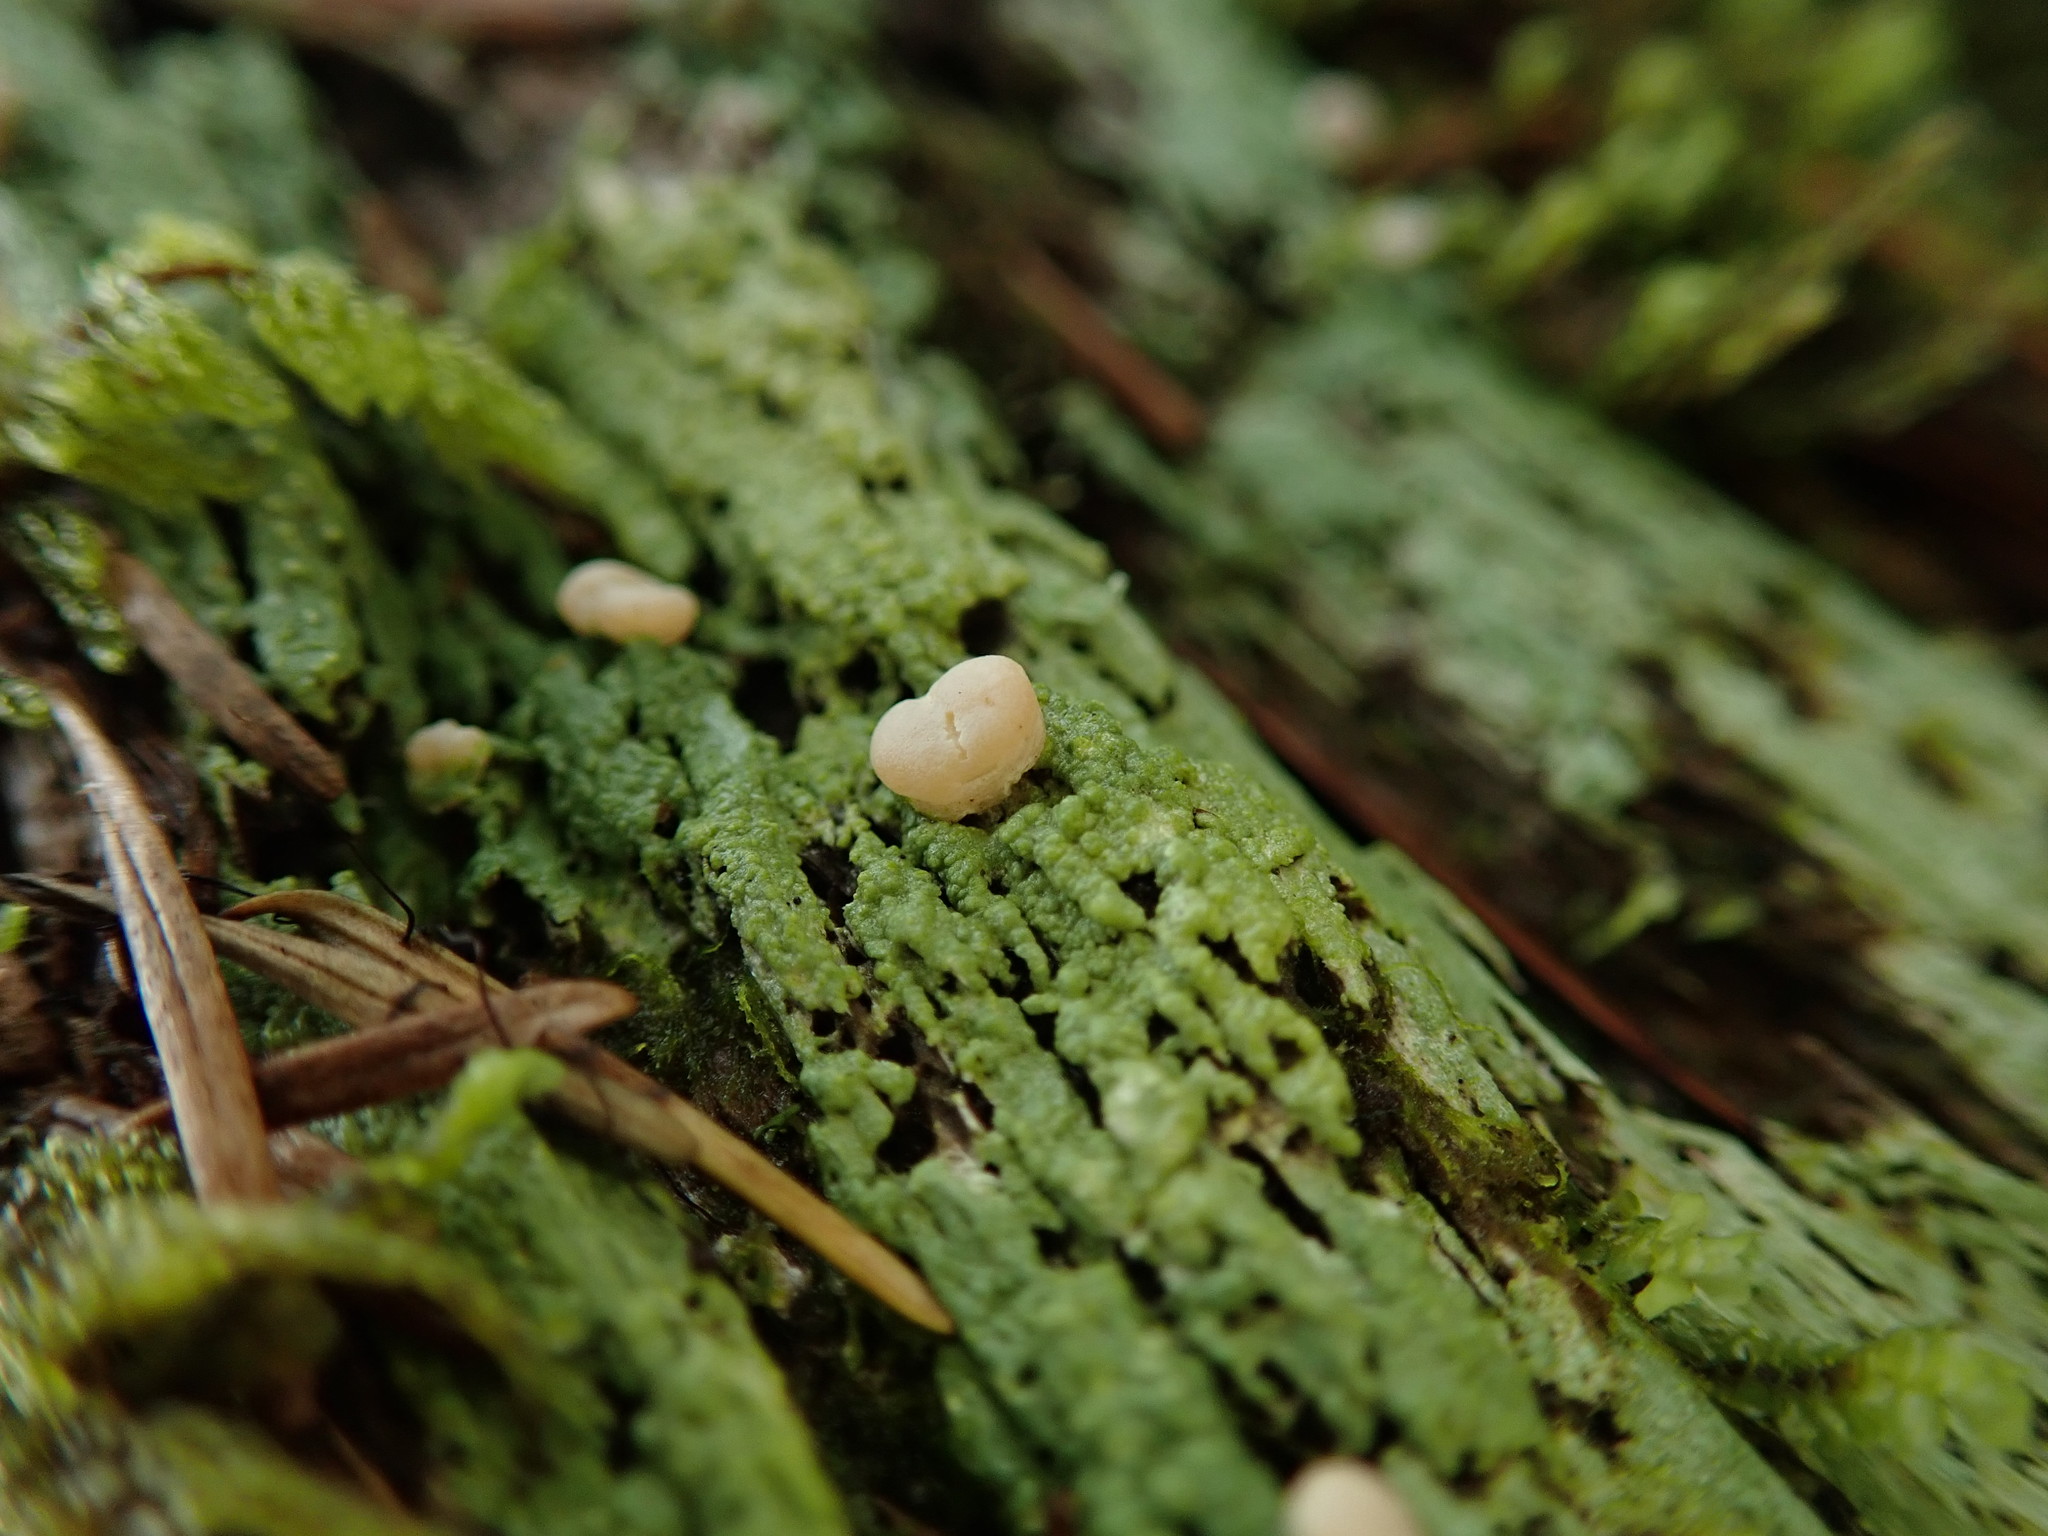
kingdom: Fungi
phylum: Ascomycota
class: Lecanoromycetes
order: Pertusariales
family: Icmadophilaceae
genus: Icmadophila
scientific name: Icmadophila ericetorum
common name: Candy lichen
